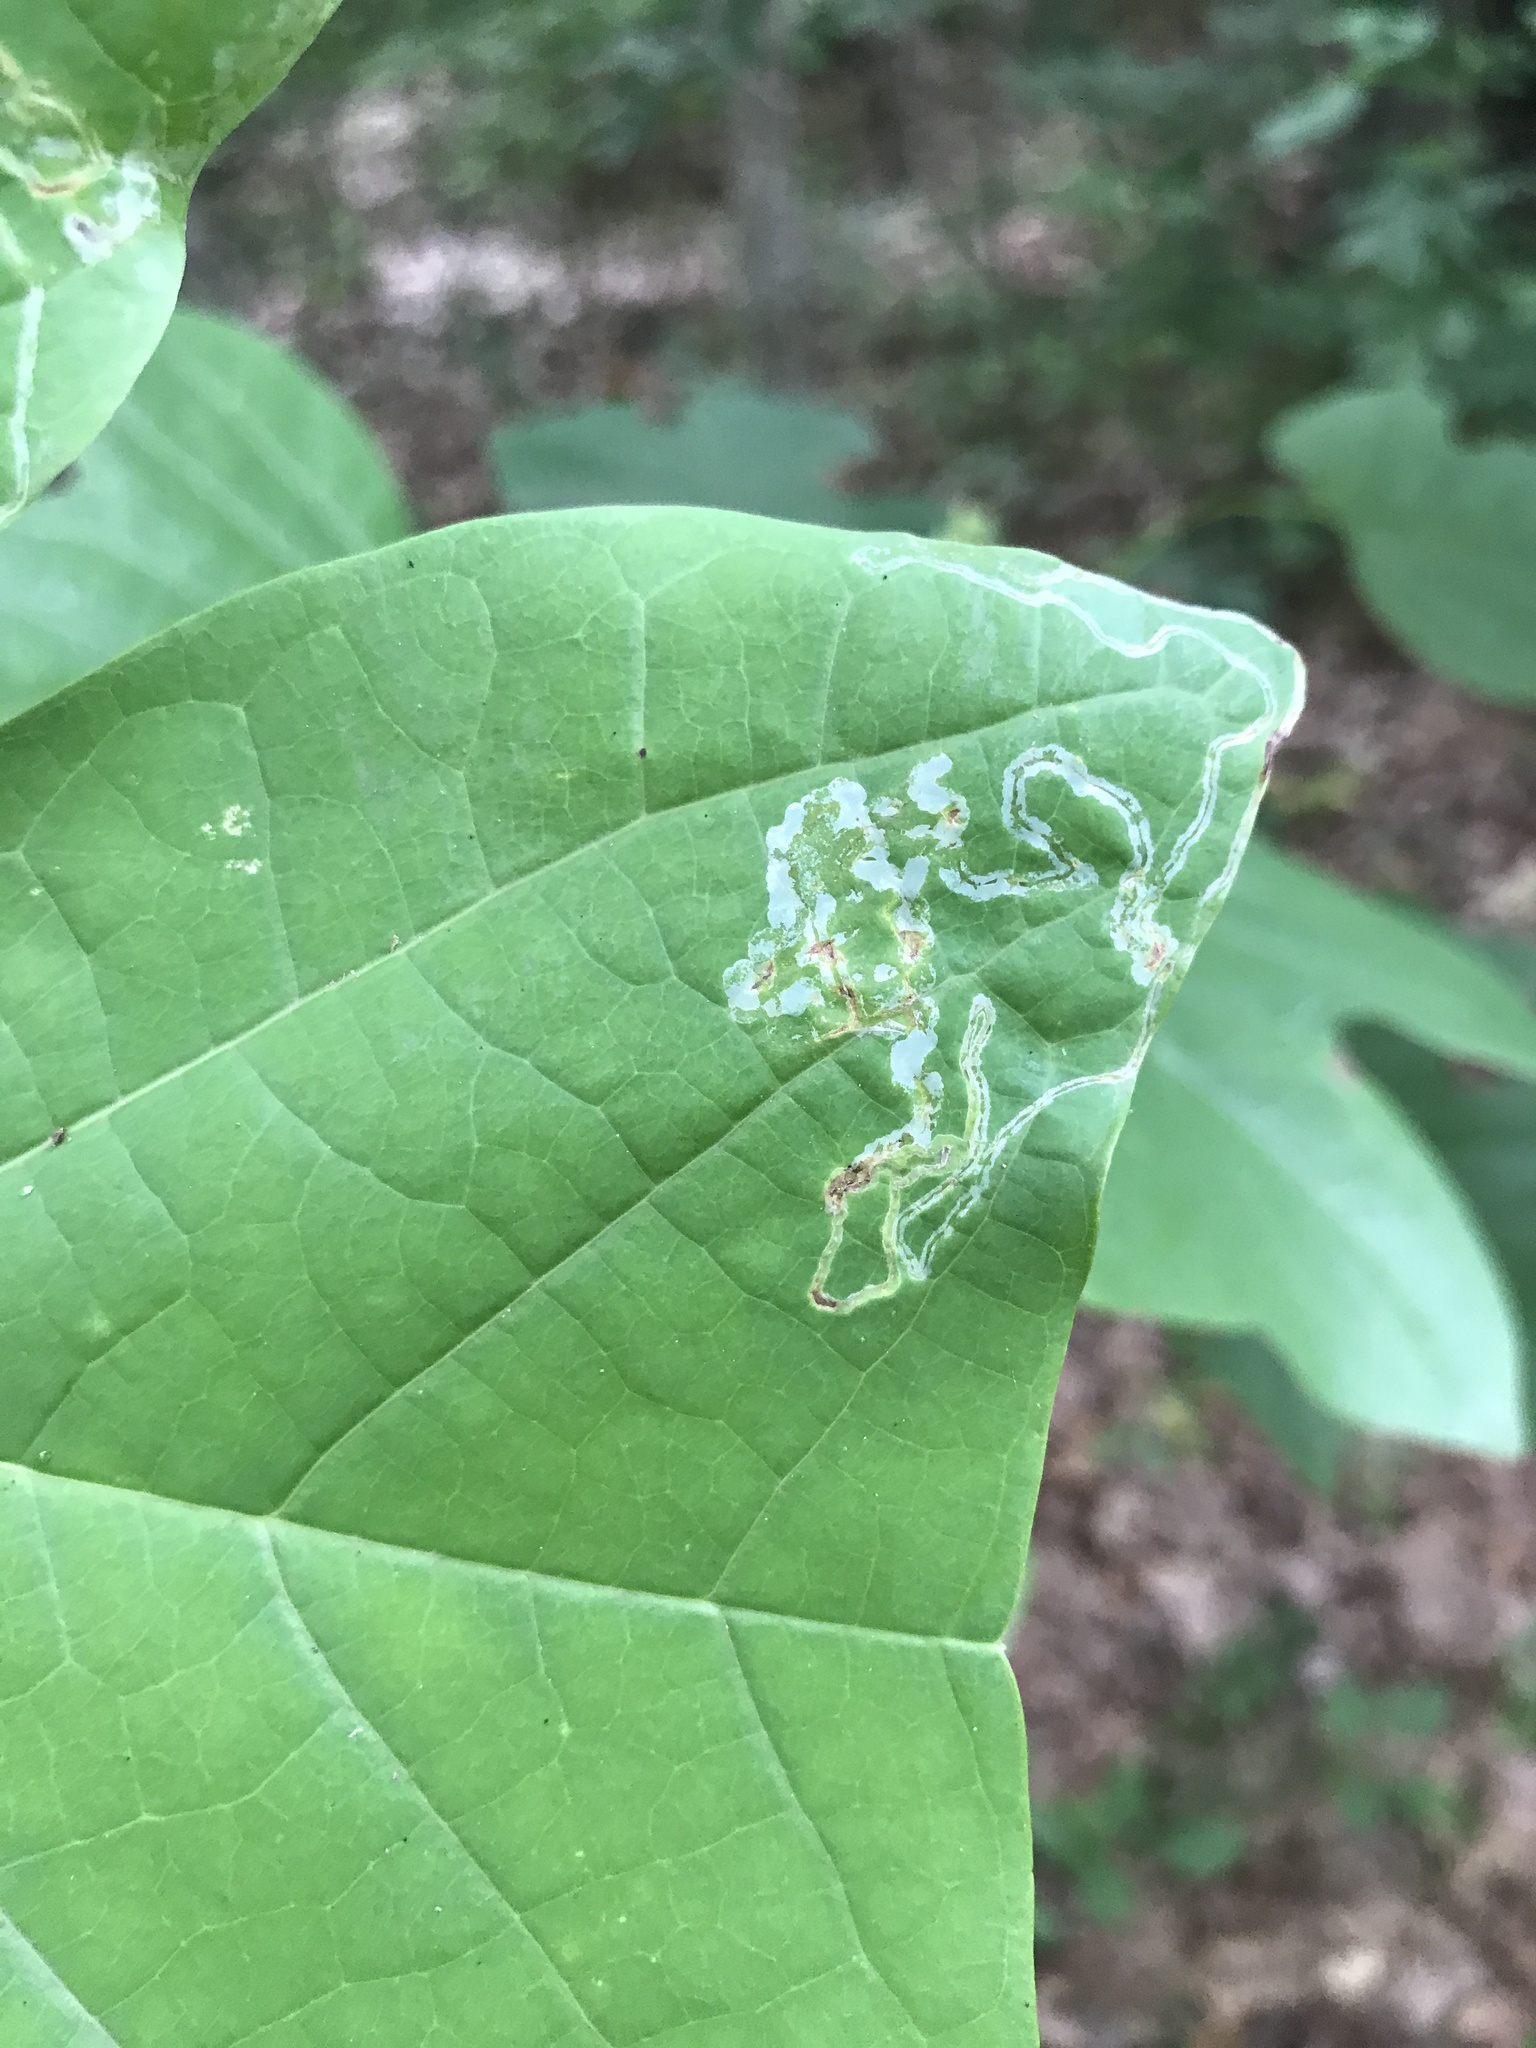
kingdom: Animalia
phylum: Arthropoda
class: Insecta
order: Lepidoptera
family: Gracillariidae
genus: Phyllocnistis
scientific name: Phyllocnistis liriodendronella
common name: Tulip tree leaf miner
